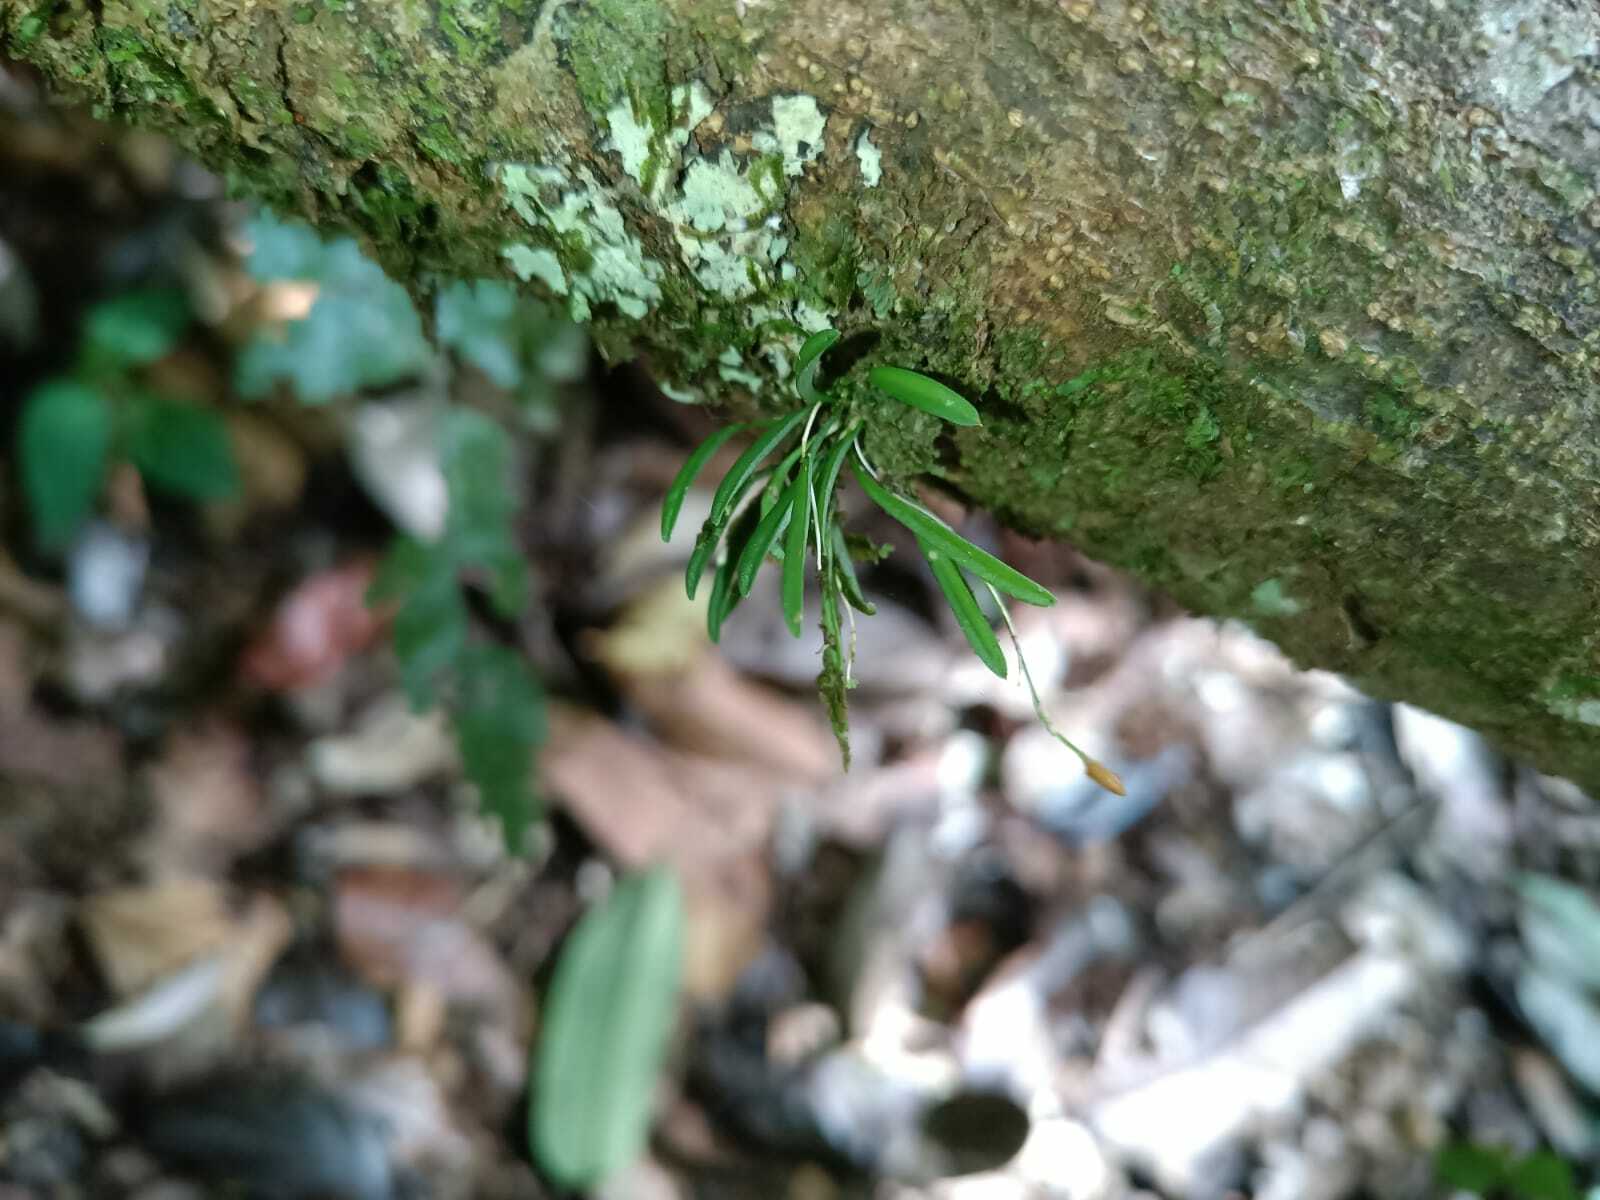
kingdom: Plantae
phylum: Tracheophyta
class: Liliopsida
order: Asparagales
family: Orchidaceae
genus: Specklinia
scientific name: Specklinia pertenuis
